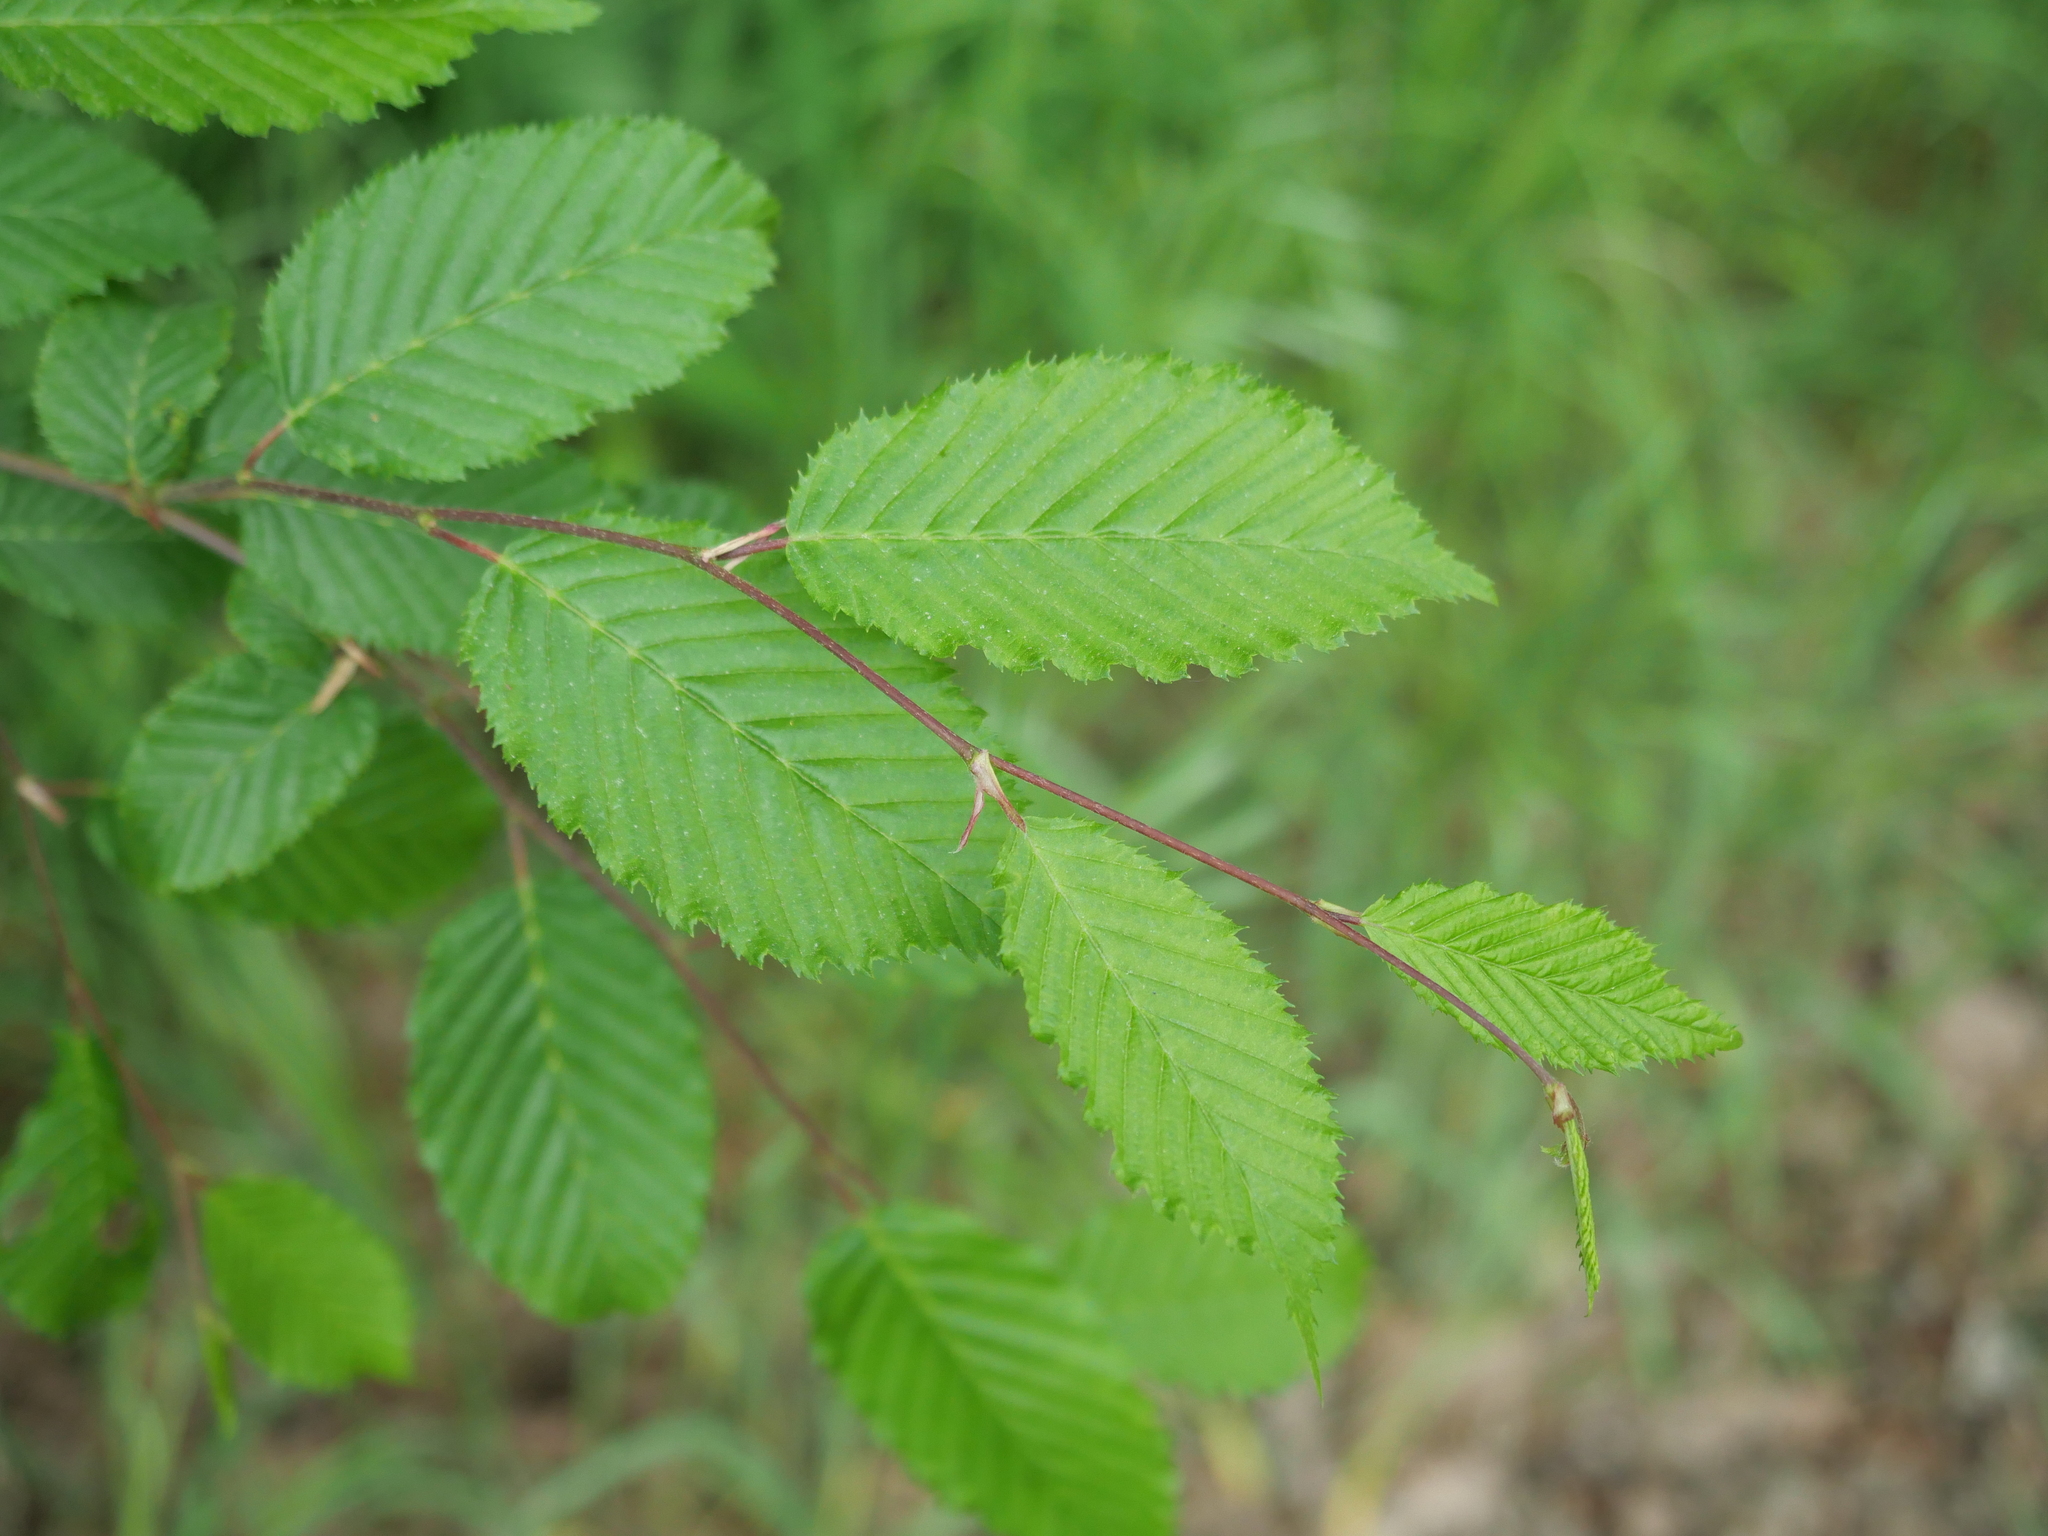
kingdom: Plantae
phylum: Tracheophyta
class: Magnoliopsida
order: Fagales
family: Betulaceae
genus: Carpinus
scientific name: Carpinus betulus
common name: Hornbeam
